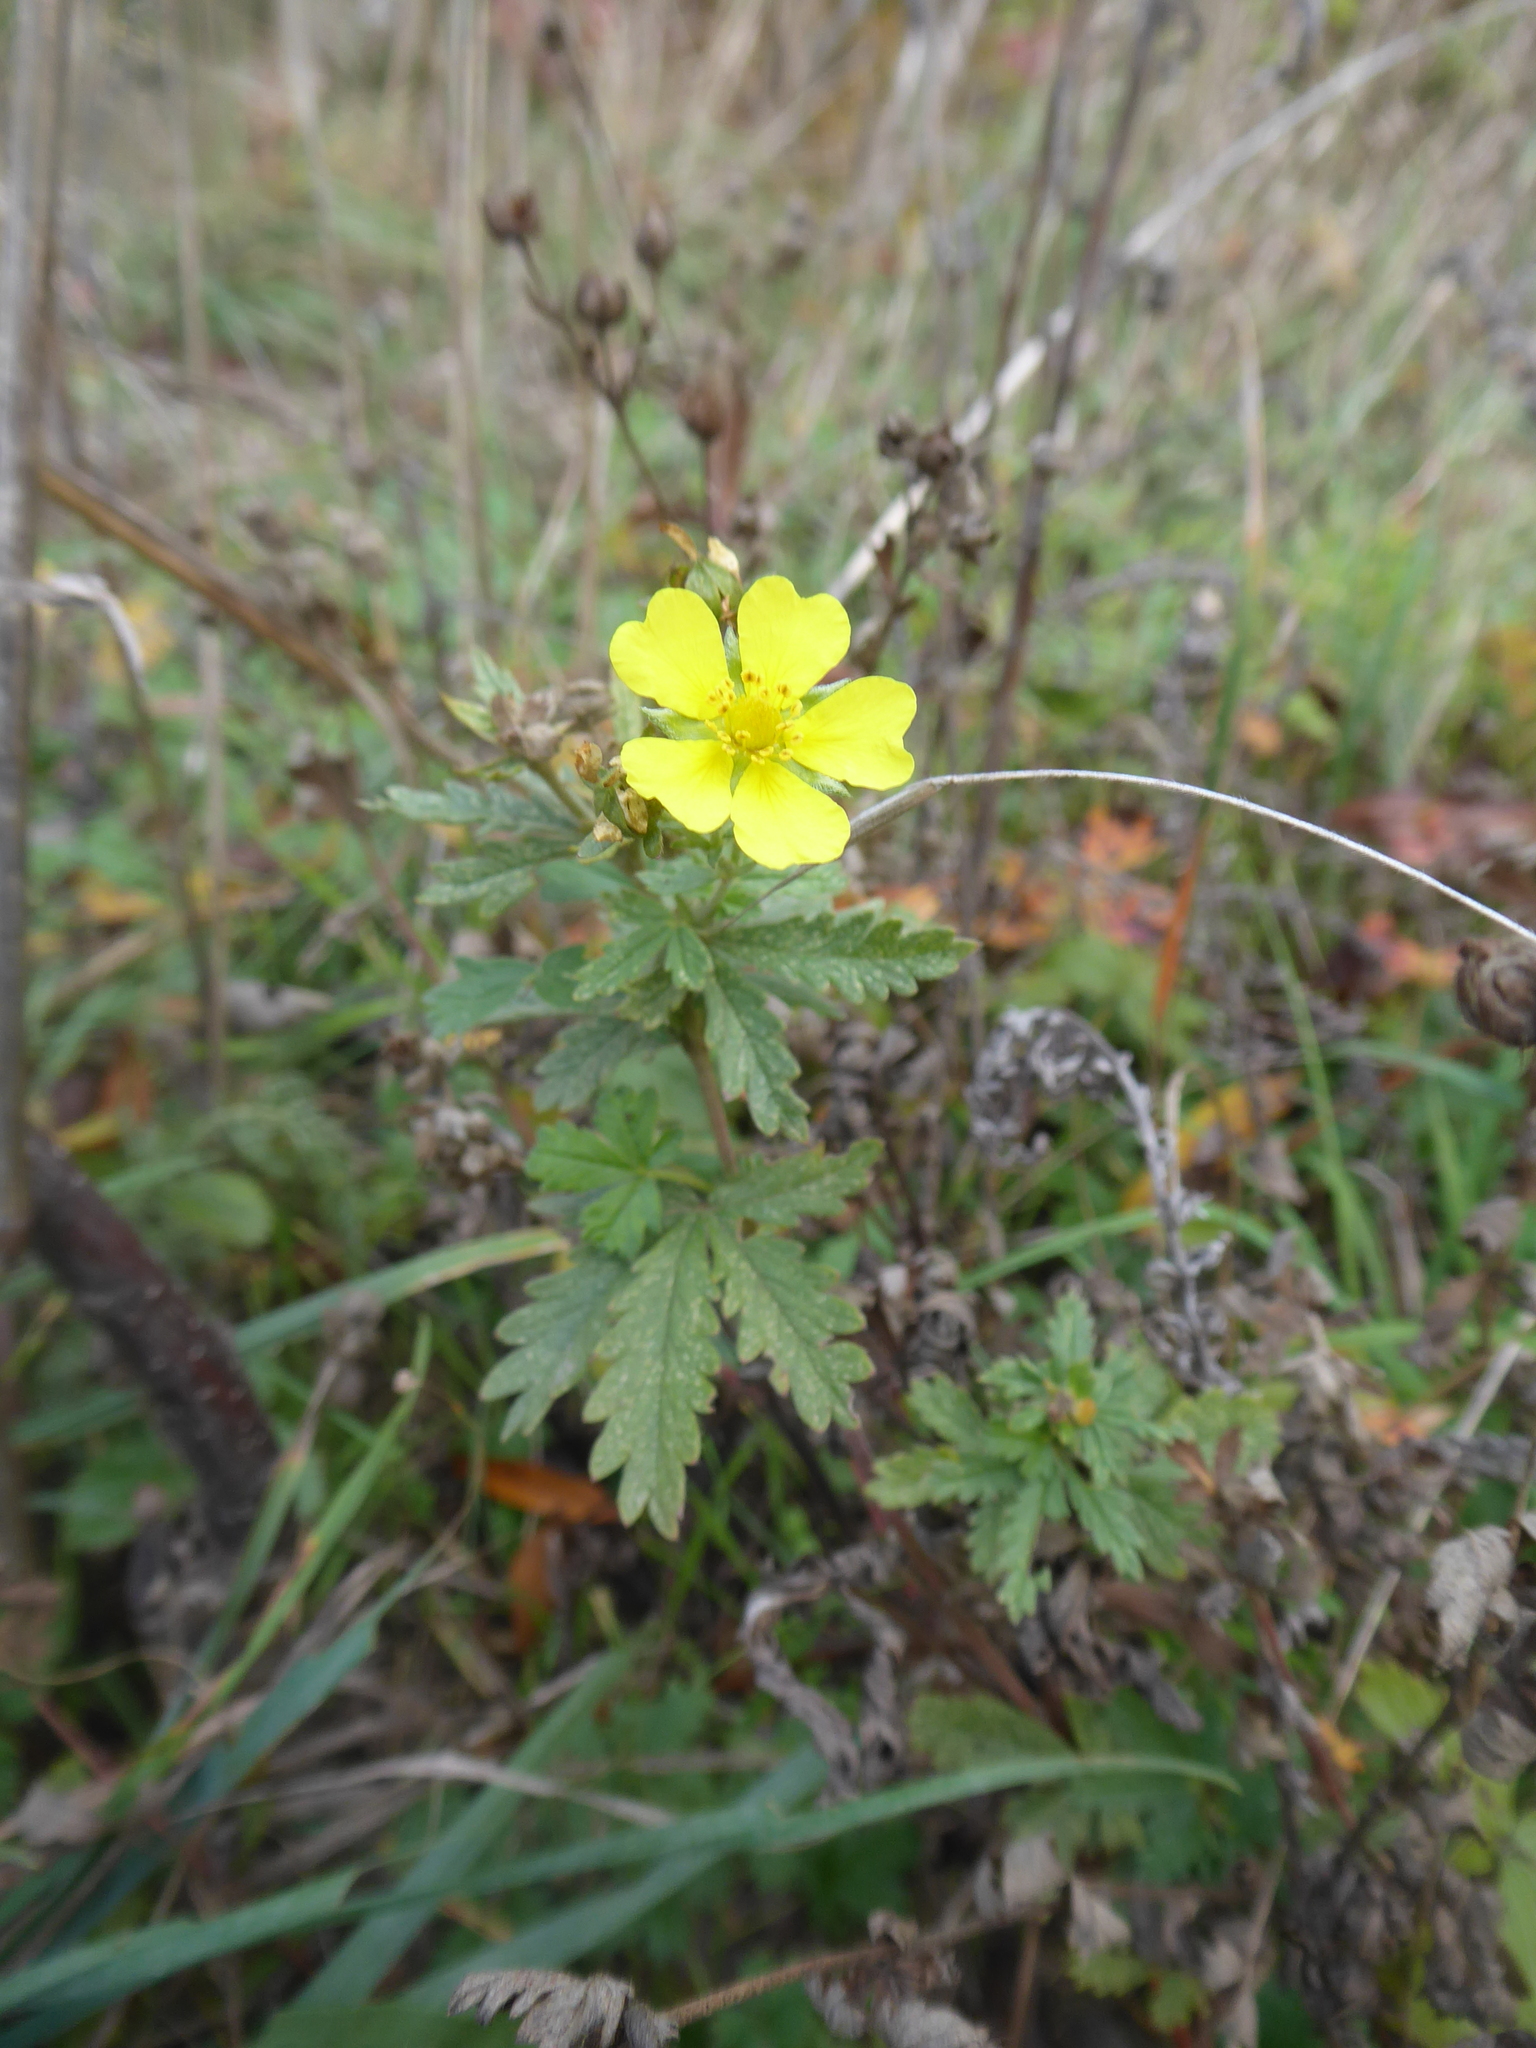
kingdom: Plantae
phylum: Tracheophyta
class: Magnoliopsida
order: Rosales
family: Rosaceae
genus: Potentilla
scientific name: Potentilla recta
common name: Sulphur cinquefoil
